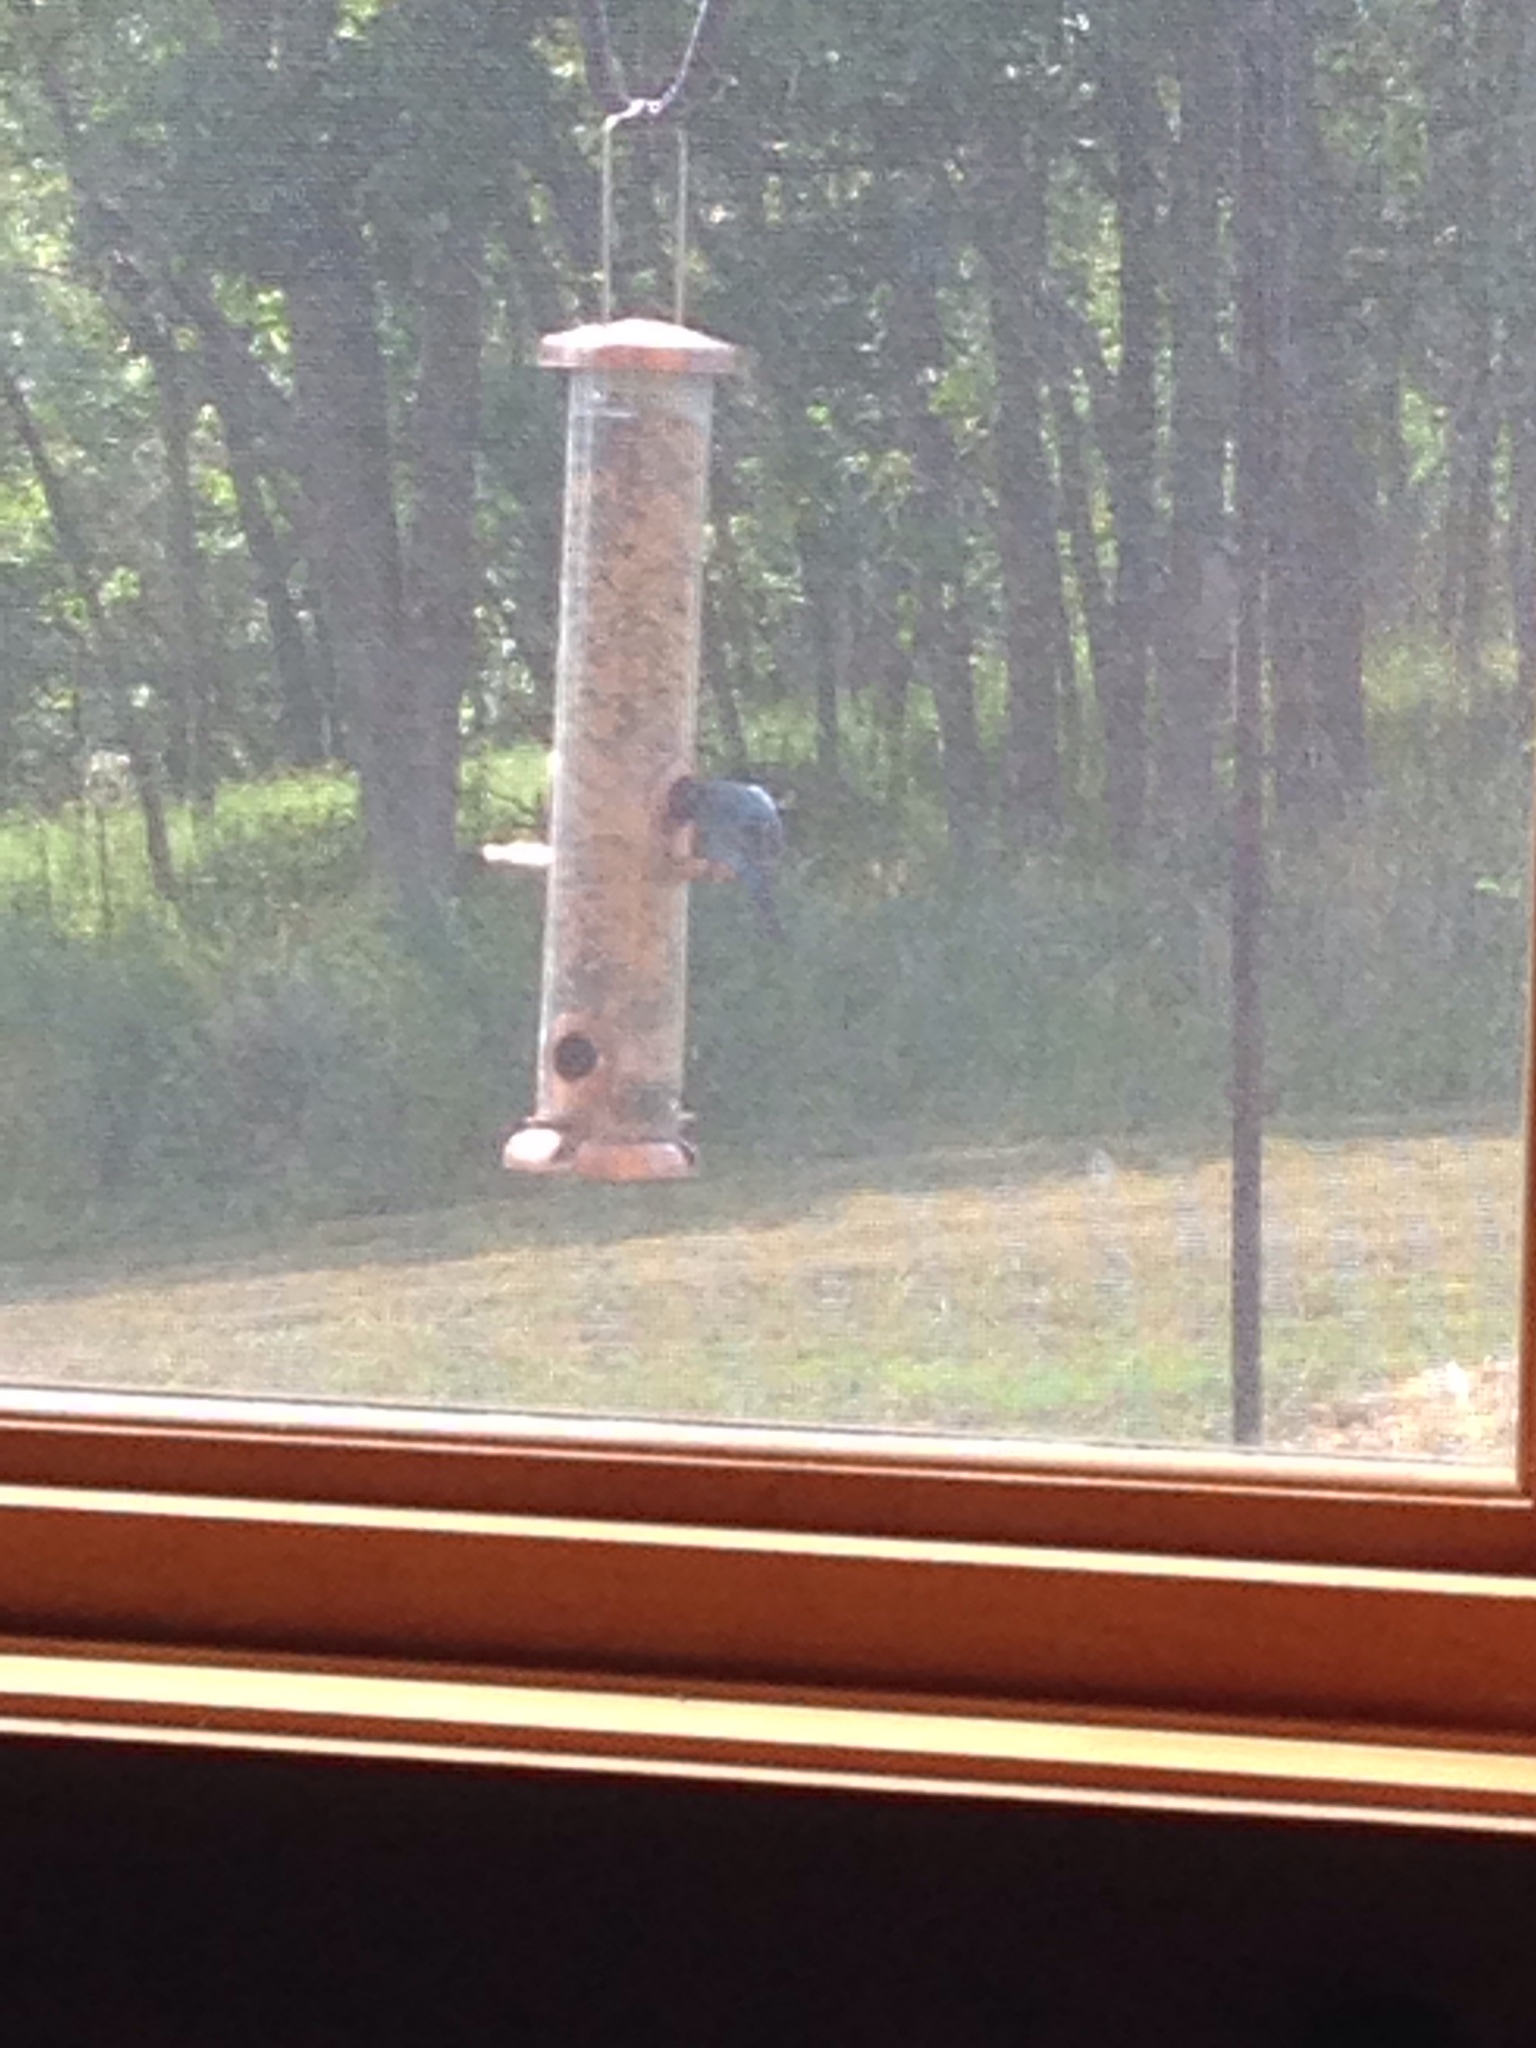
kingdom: Animalia
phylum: Chordata
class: Aves
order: Passeriformes
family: Cardinalidae
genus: Passerina
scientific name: Passerina cyanea
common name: Indigo bunting
